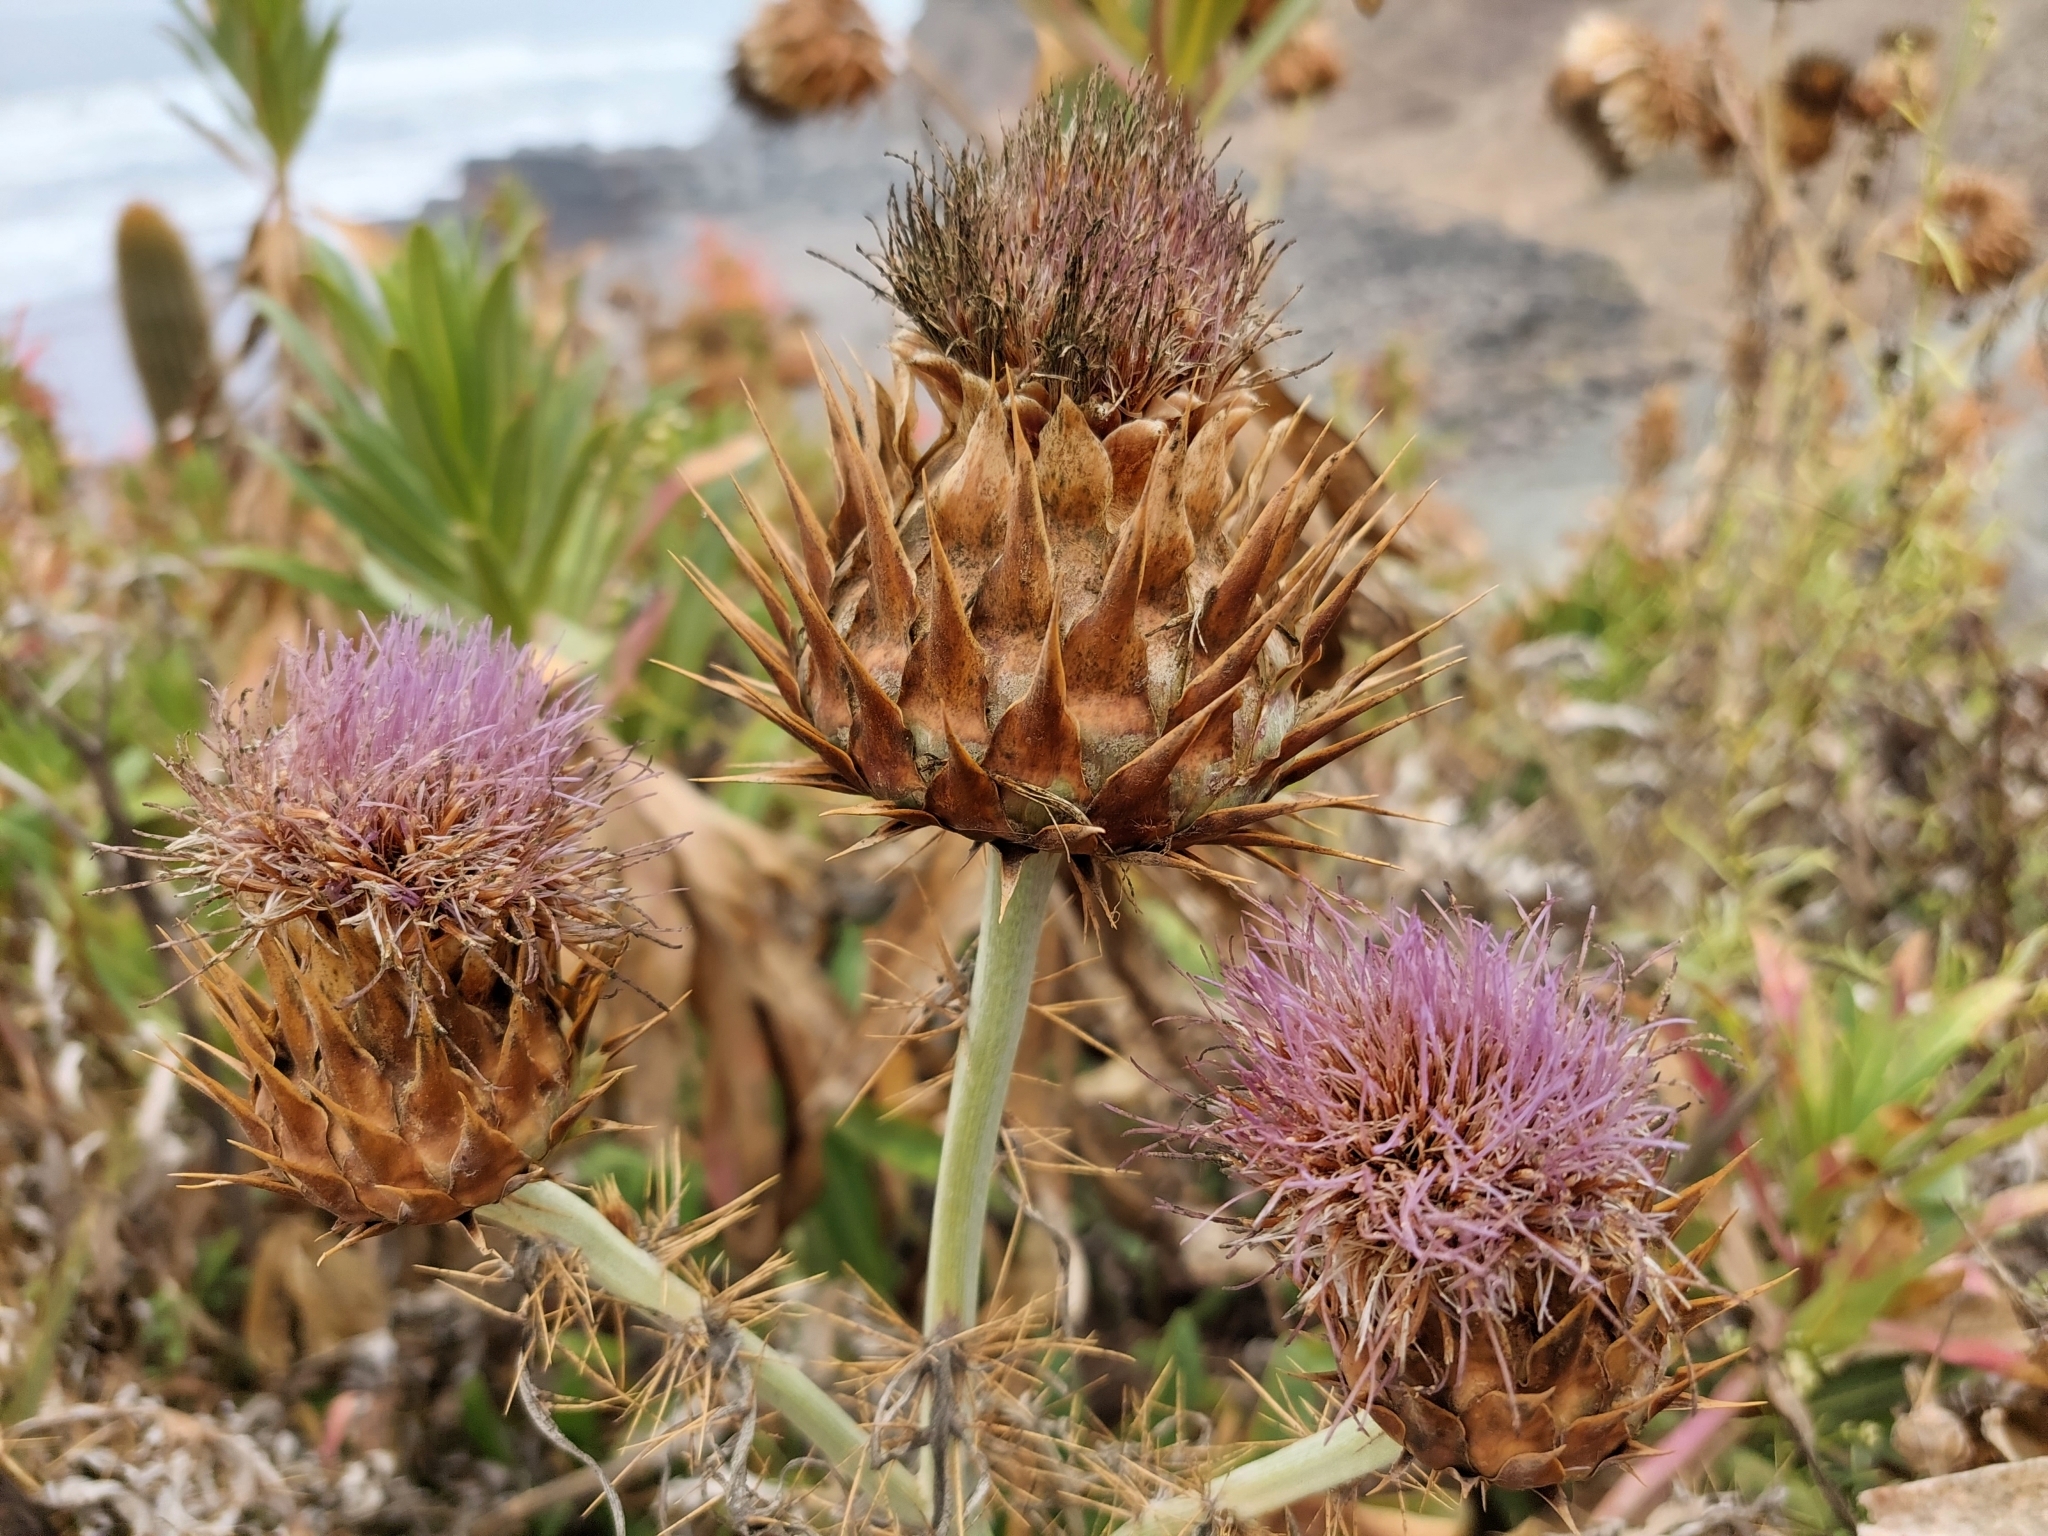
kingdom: Plantae
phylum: Tracheophyta
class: Magnoliopsida
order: Asterales
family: Asteraceae
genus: Cynara
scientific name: Cynara cardunculus
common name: Globe artichoke
